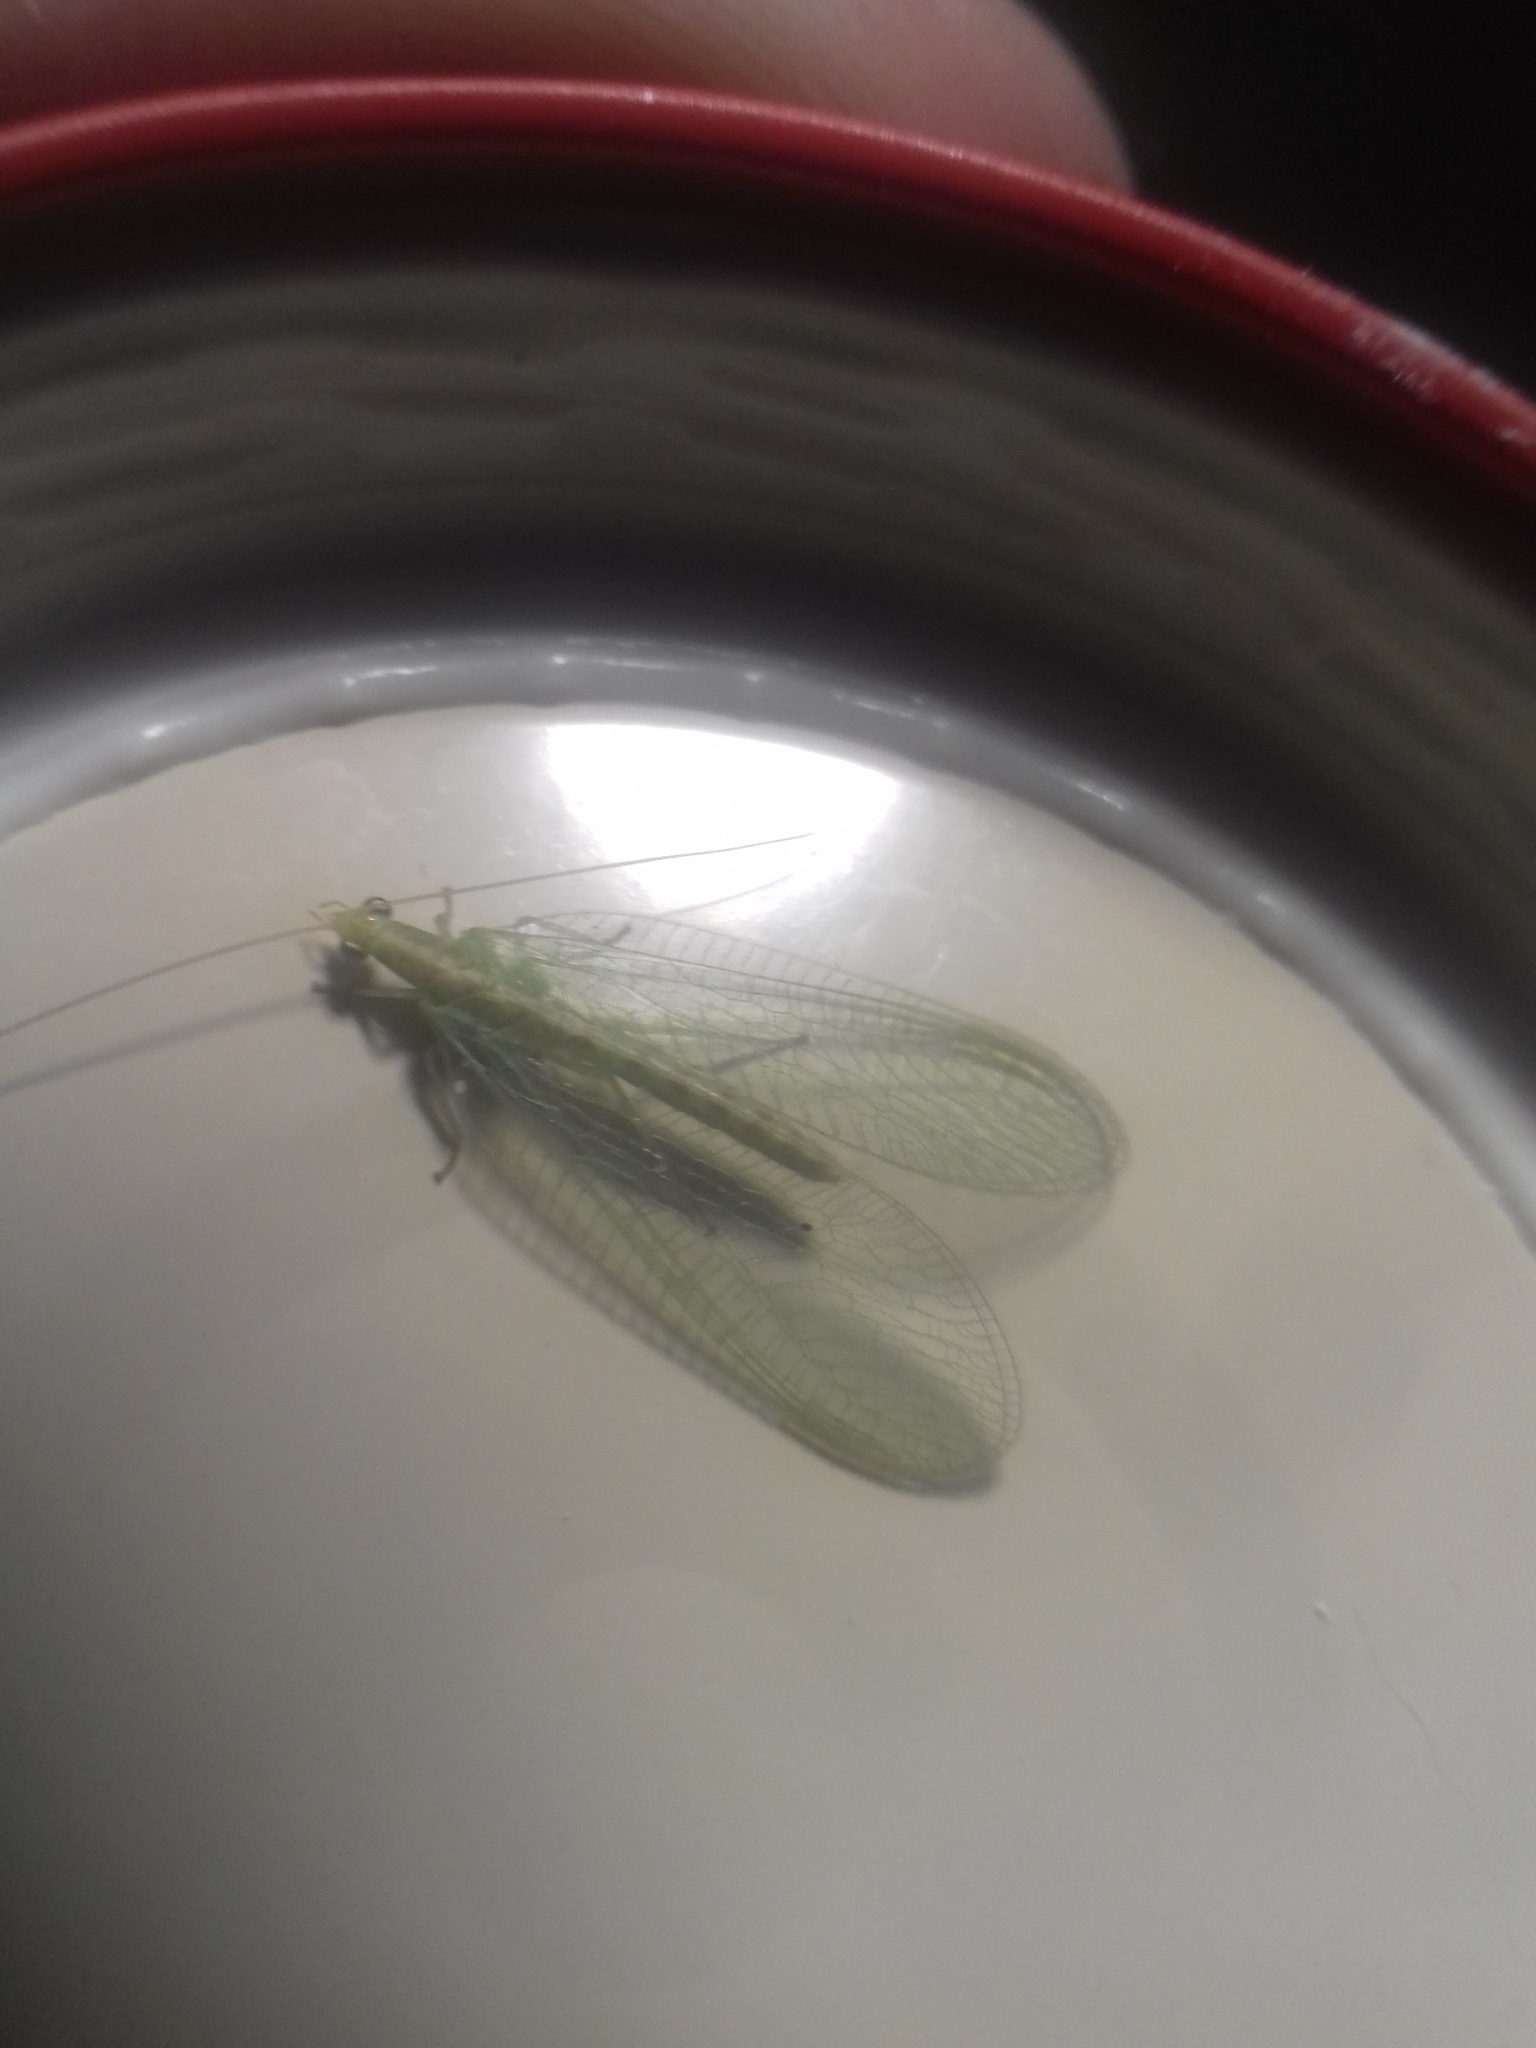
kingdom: Animalia
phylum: Arthropoda
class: Insecta
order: Neuroptera
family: Chrysopidae
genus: Chrysoperla
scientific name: Chrysoperla
